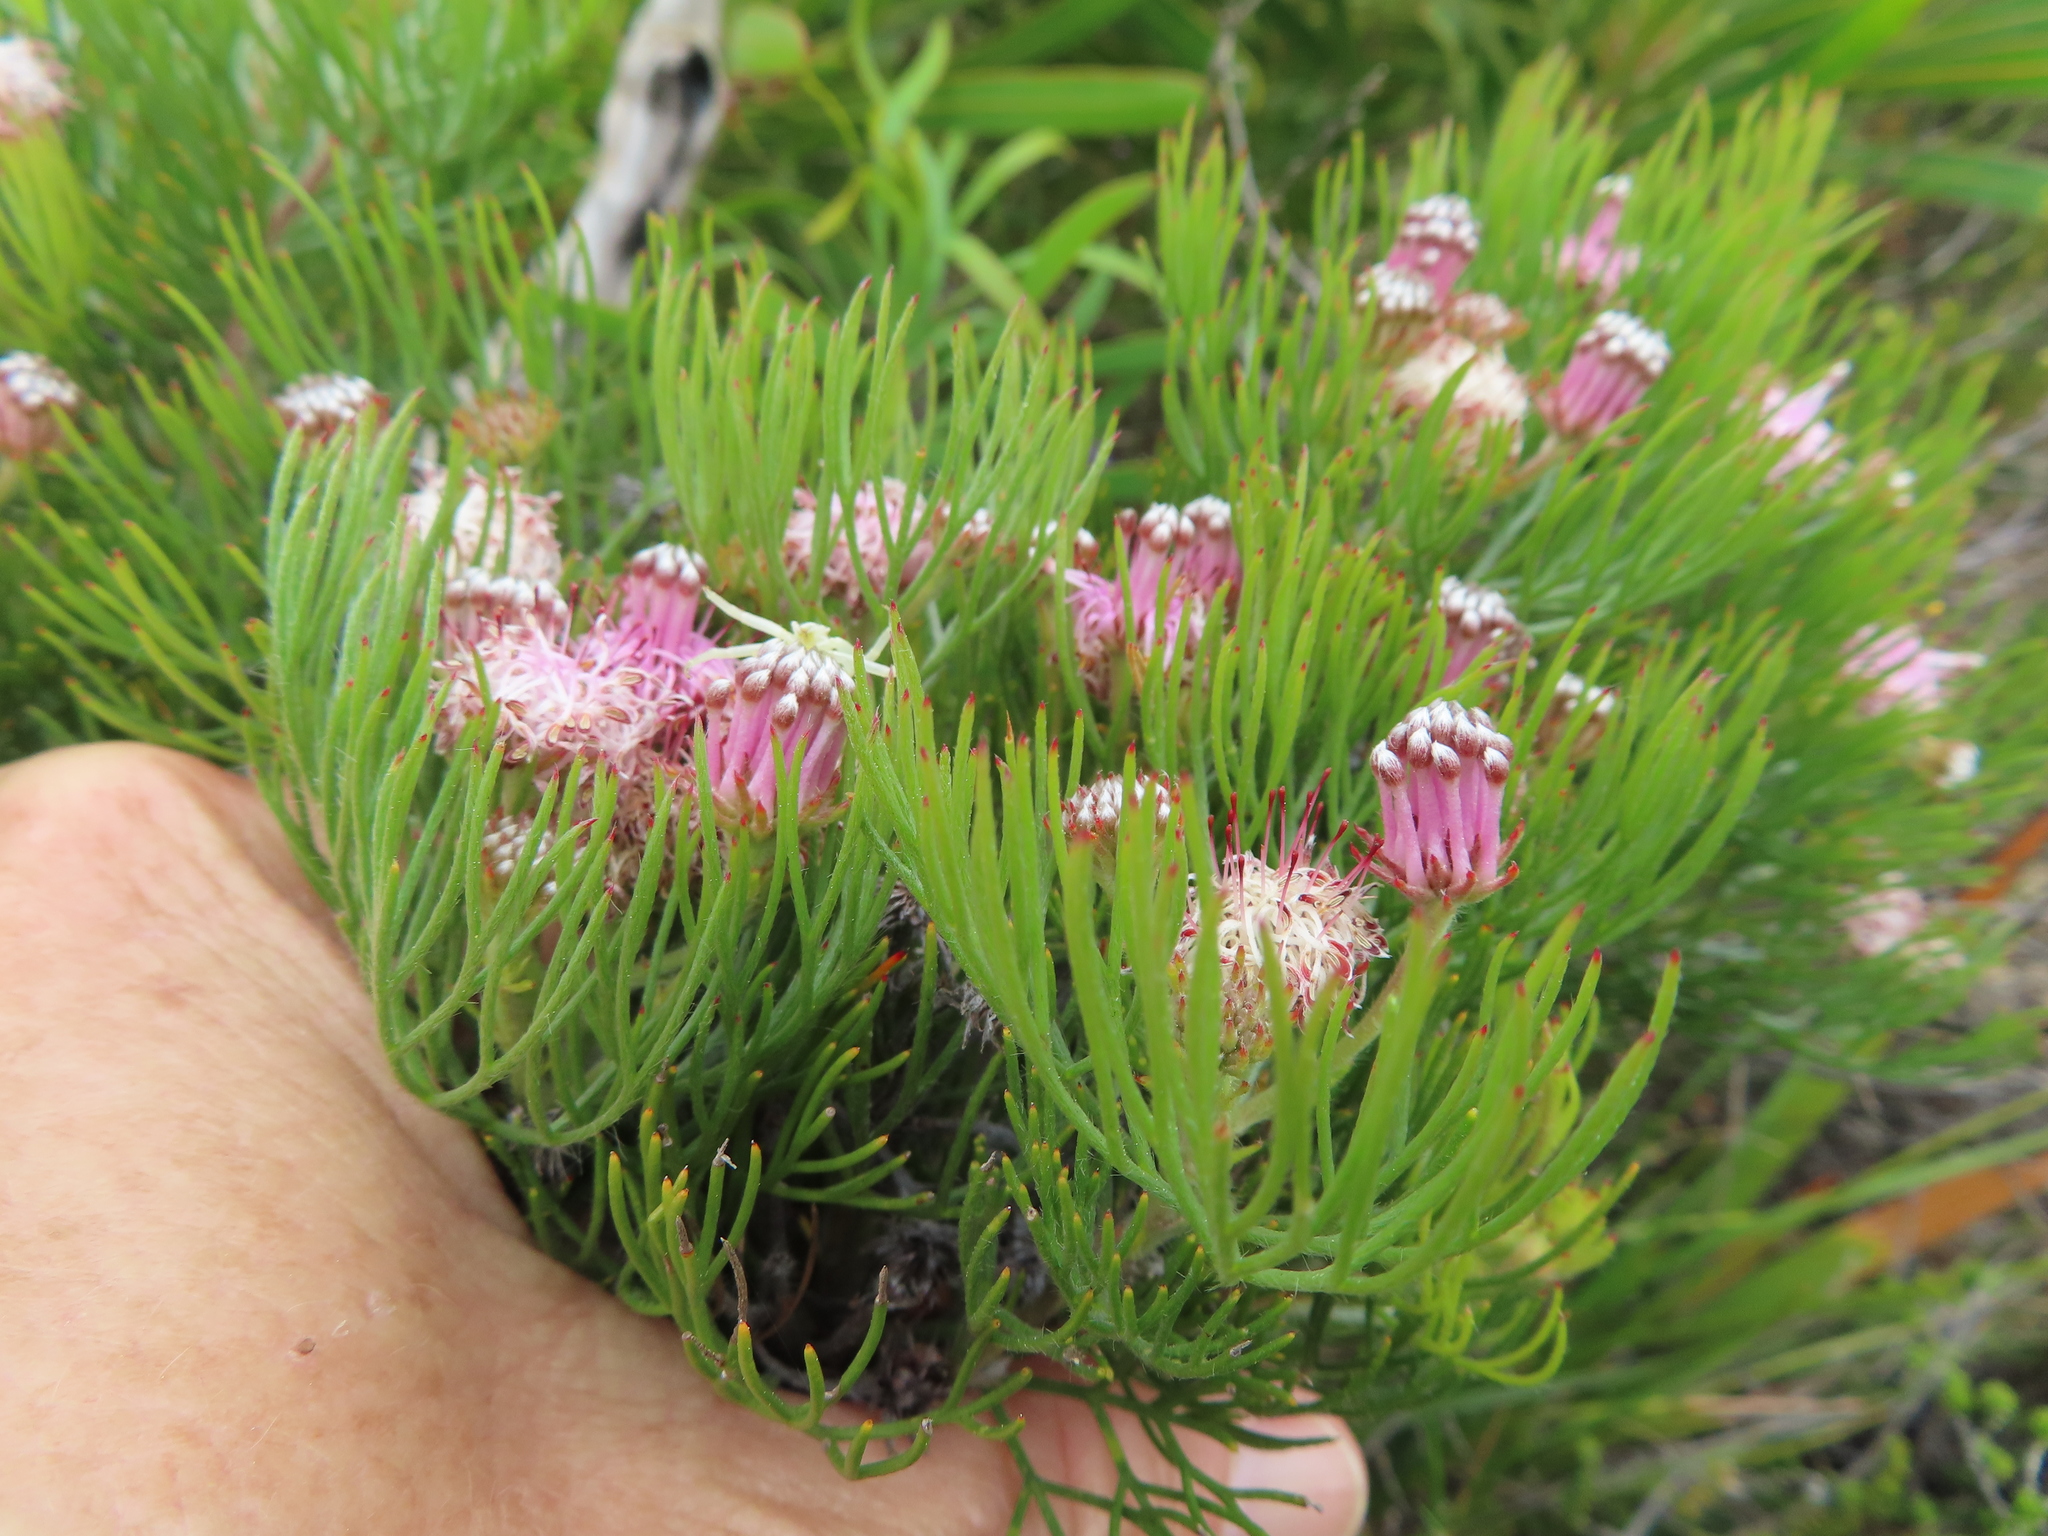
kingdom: Plantae
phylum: Tracheophyta
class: Magnoliopsida
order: Proteales
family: Proteaceae
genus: Serruria
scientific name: Serruria fasciflora
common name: Common pin spiderhead
